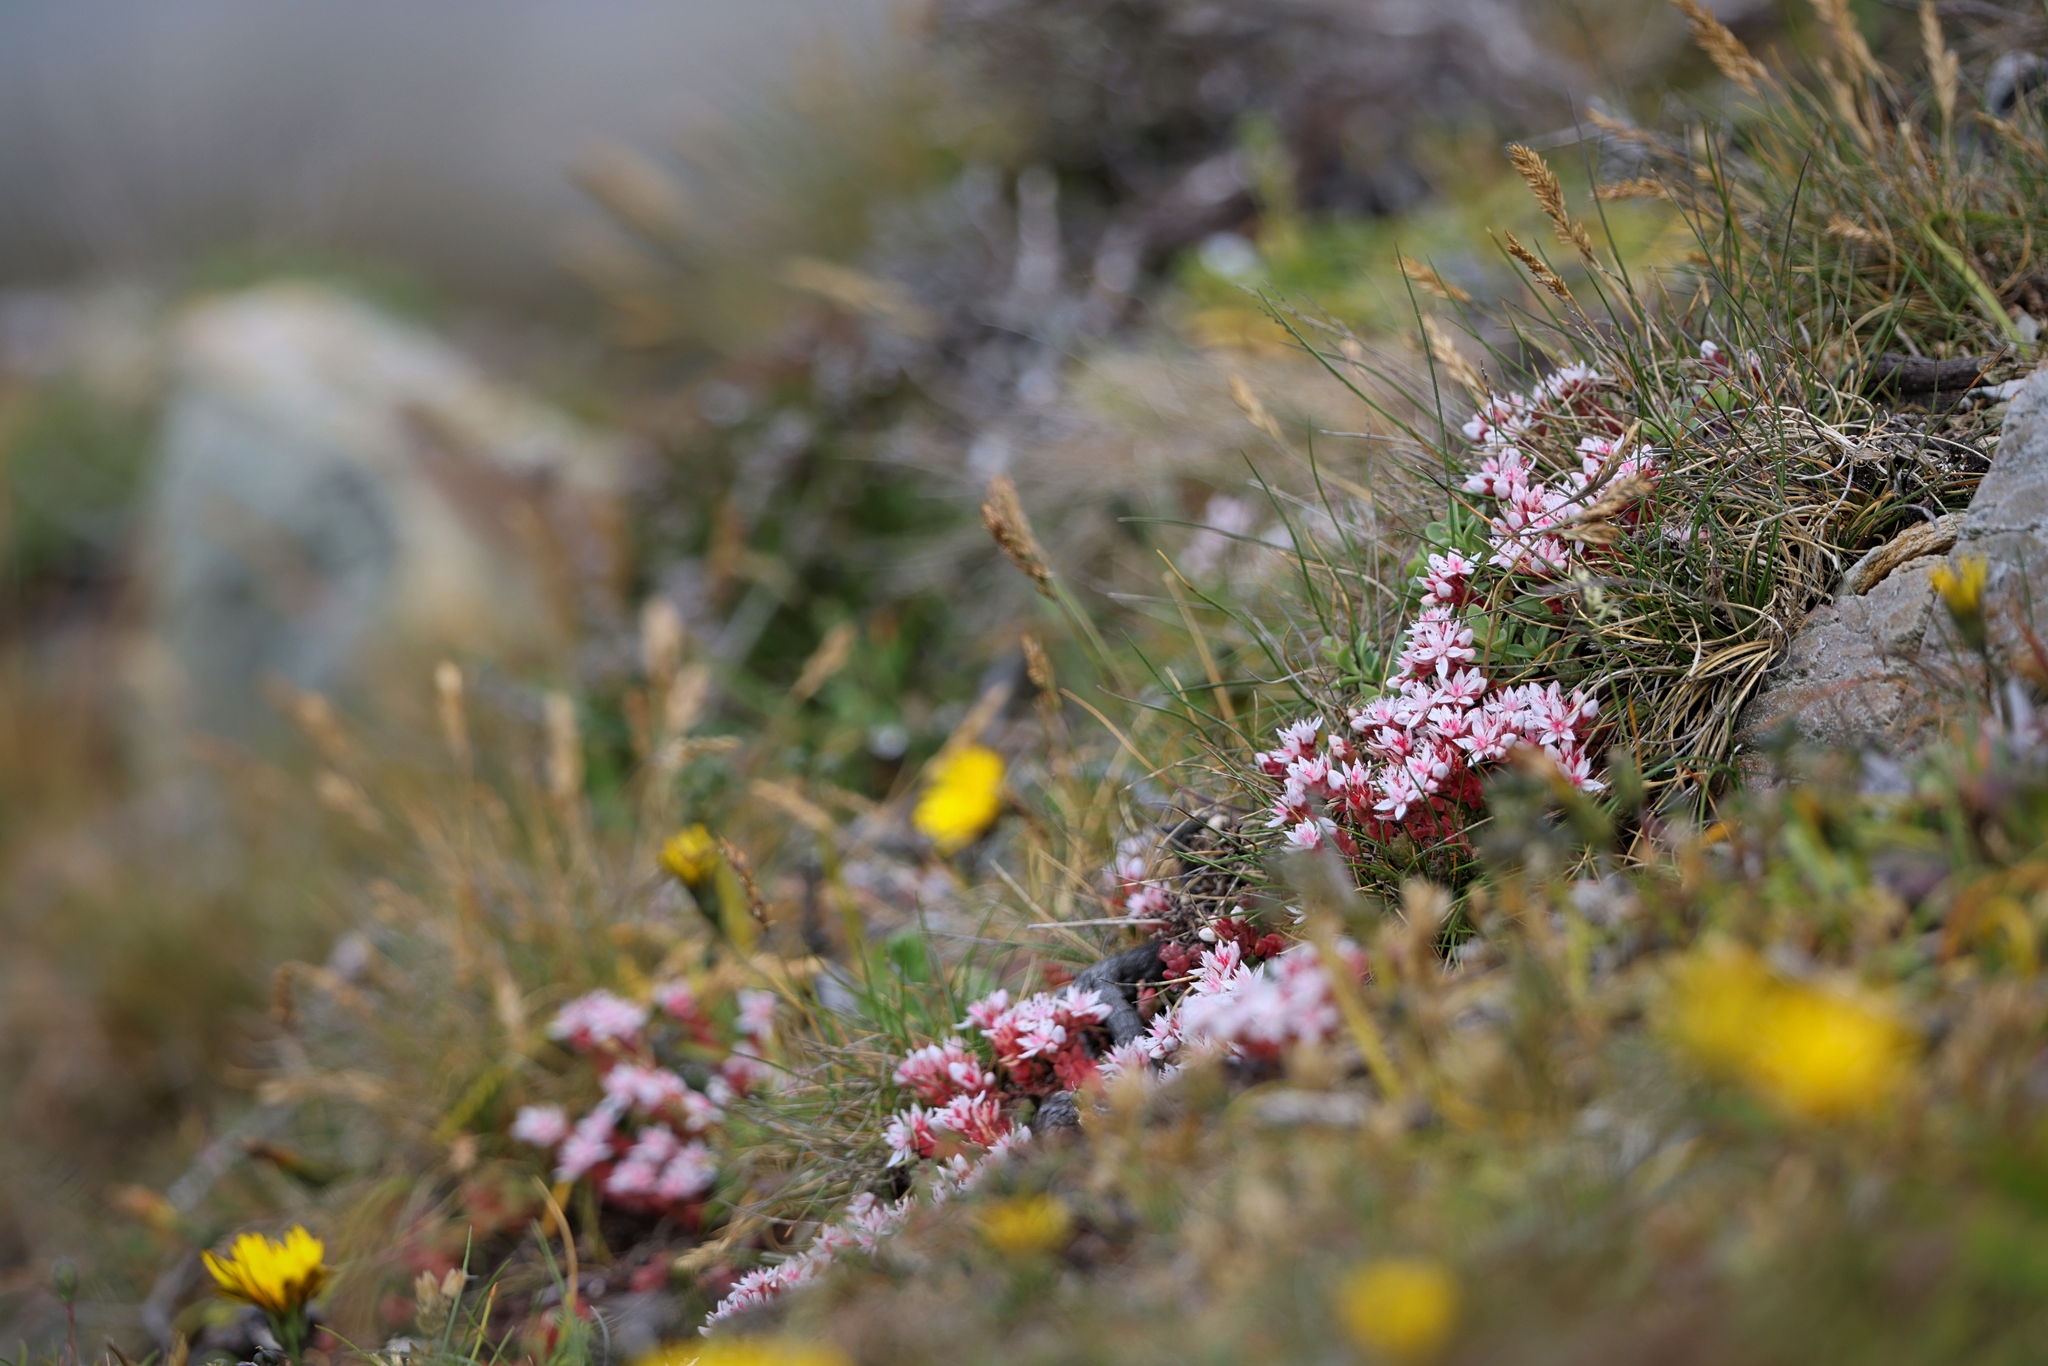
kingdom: Plantae
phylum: Tracheophyta
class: Magnoliopsida
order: Saxifragales
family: Crassulaceae
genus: Sedum
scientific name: Sedum anglicum
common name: English stonecrop
